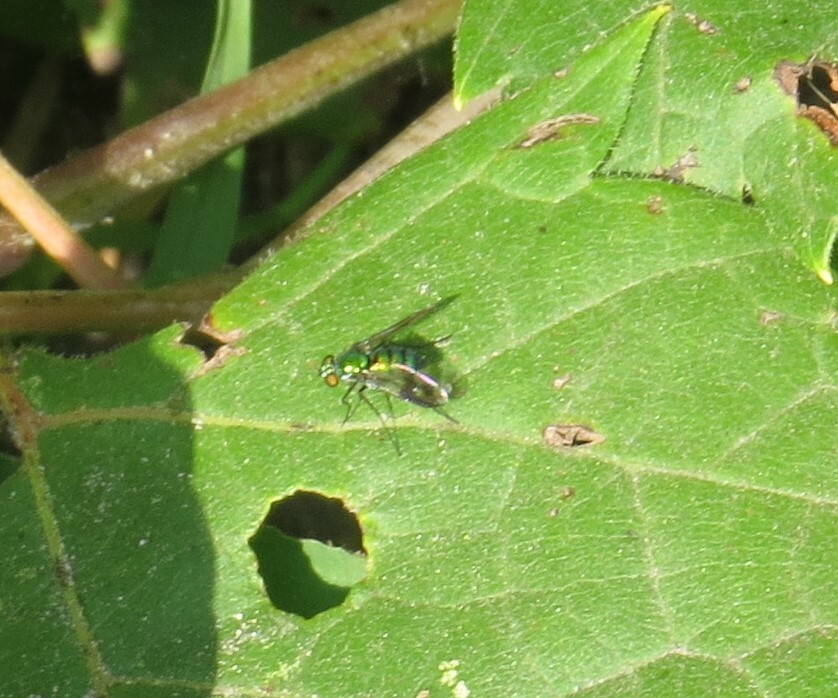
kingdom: Animalia
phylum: Arthropoda
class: Insecta
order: Diptera
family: Dolichopodidae
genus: Condylostylus
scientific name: Condylostylus patibulatus
